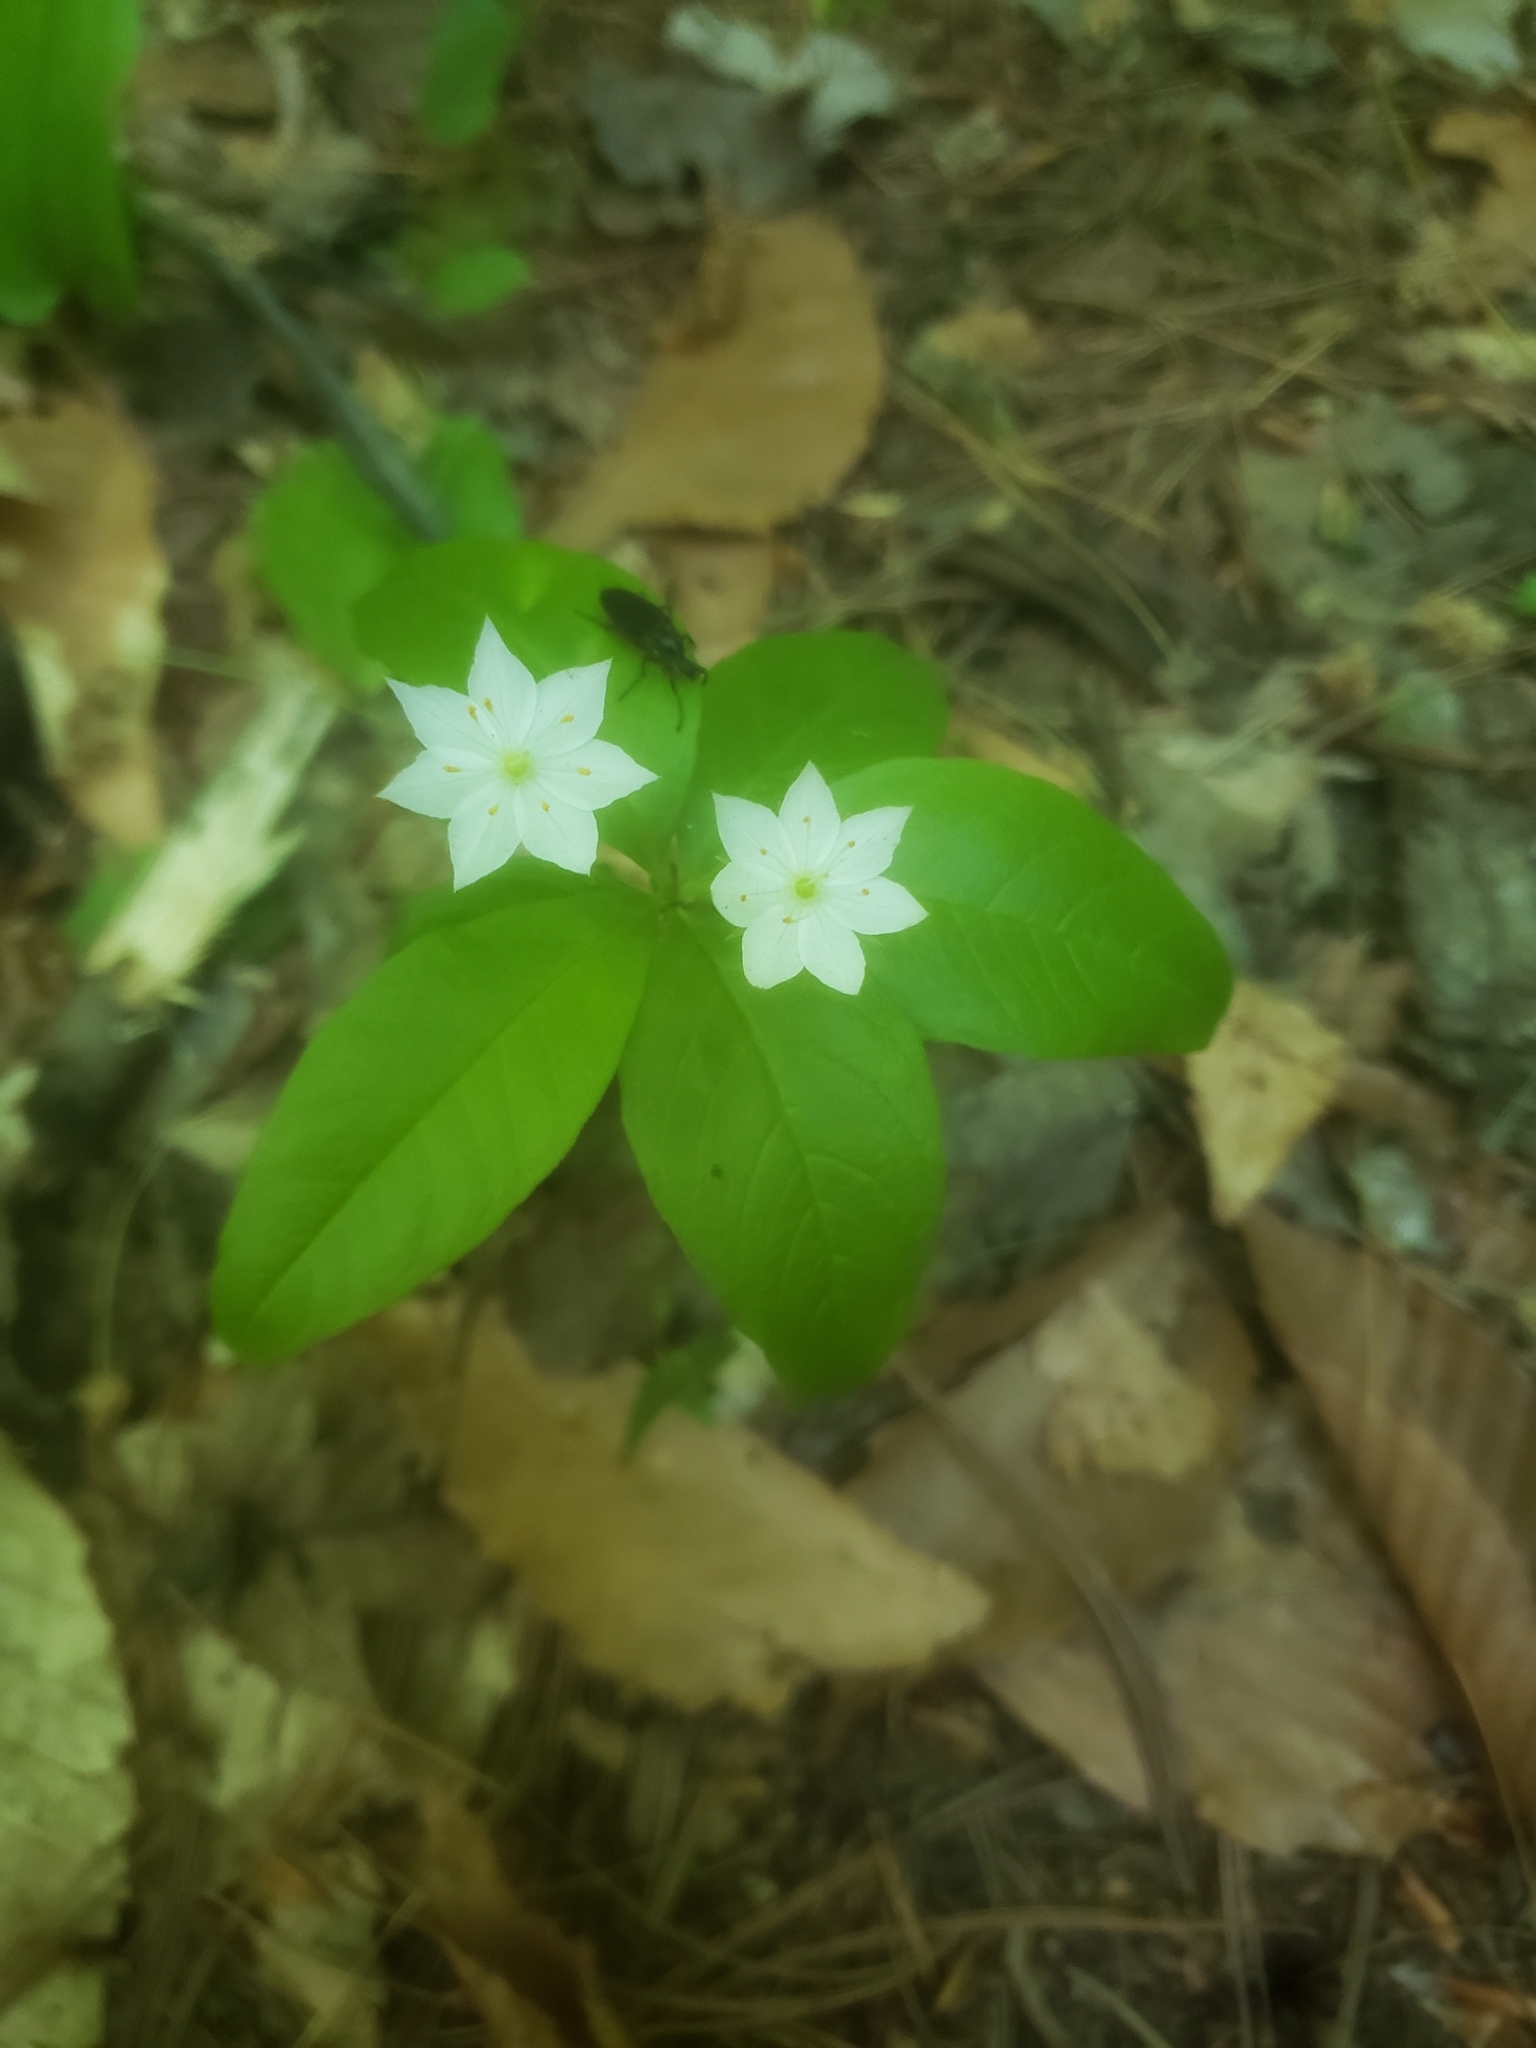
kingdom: Plantae
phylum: Tracheophyta
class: Magnoliopsida
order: Ericales
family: Primulaceae
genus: Lysimachia
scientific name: Lysimachia borealis
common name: American starflower
